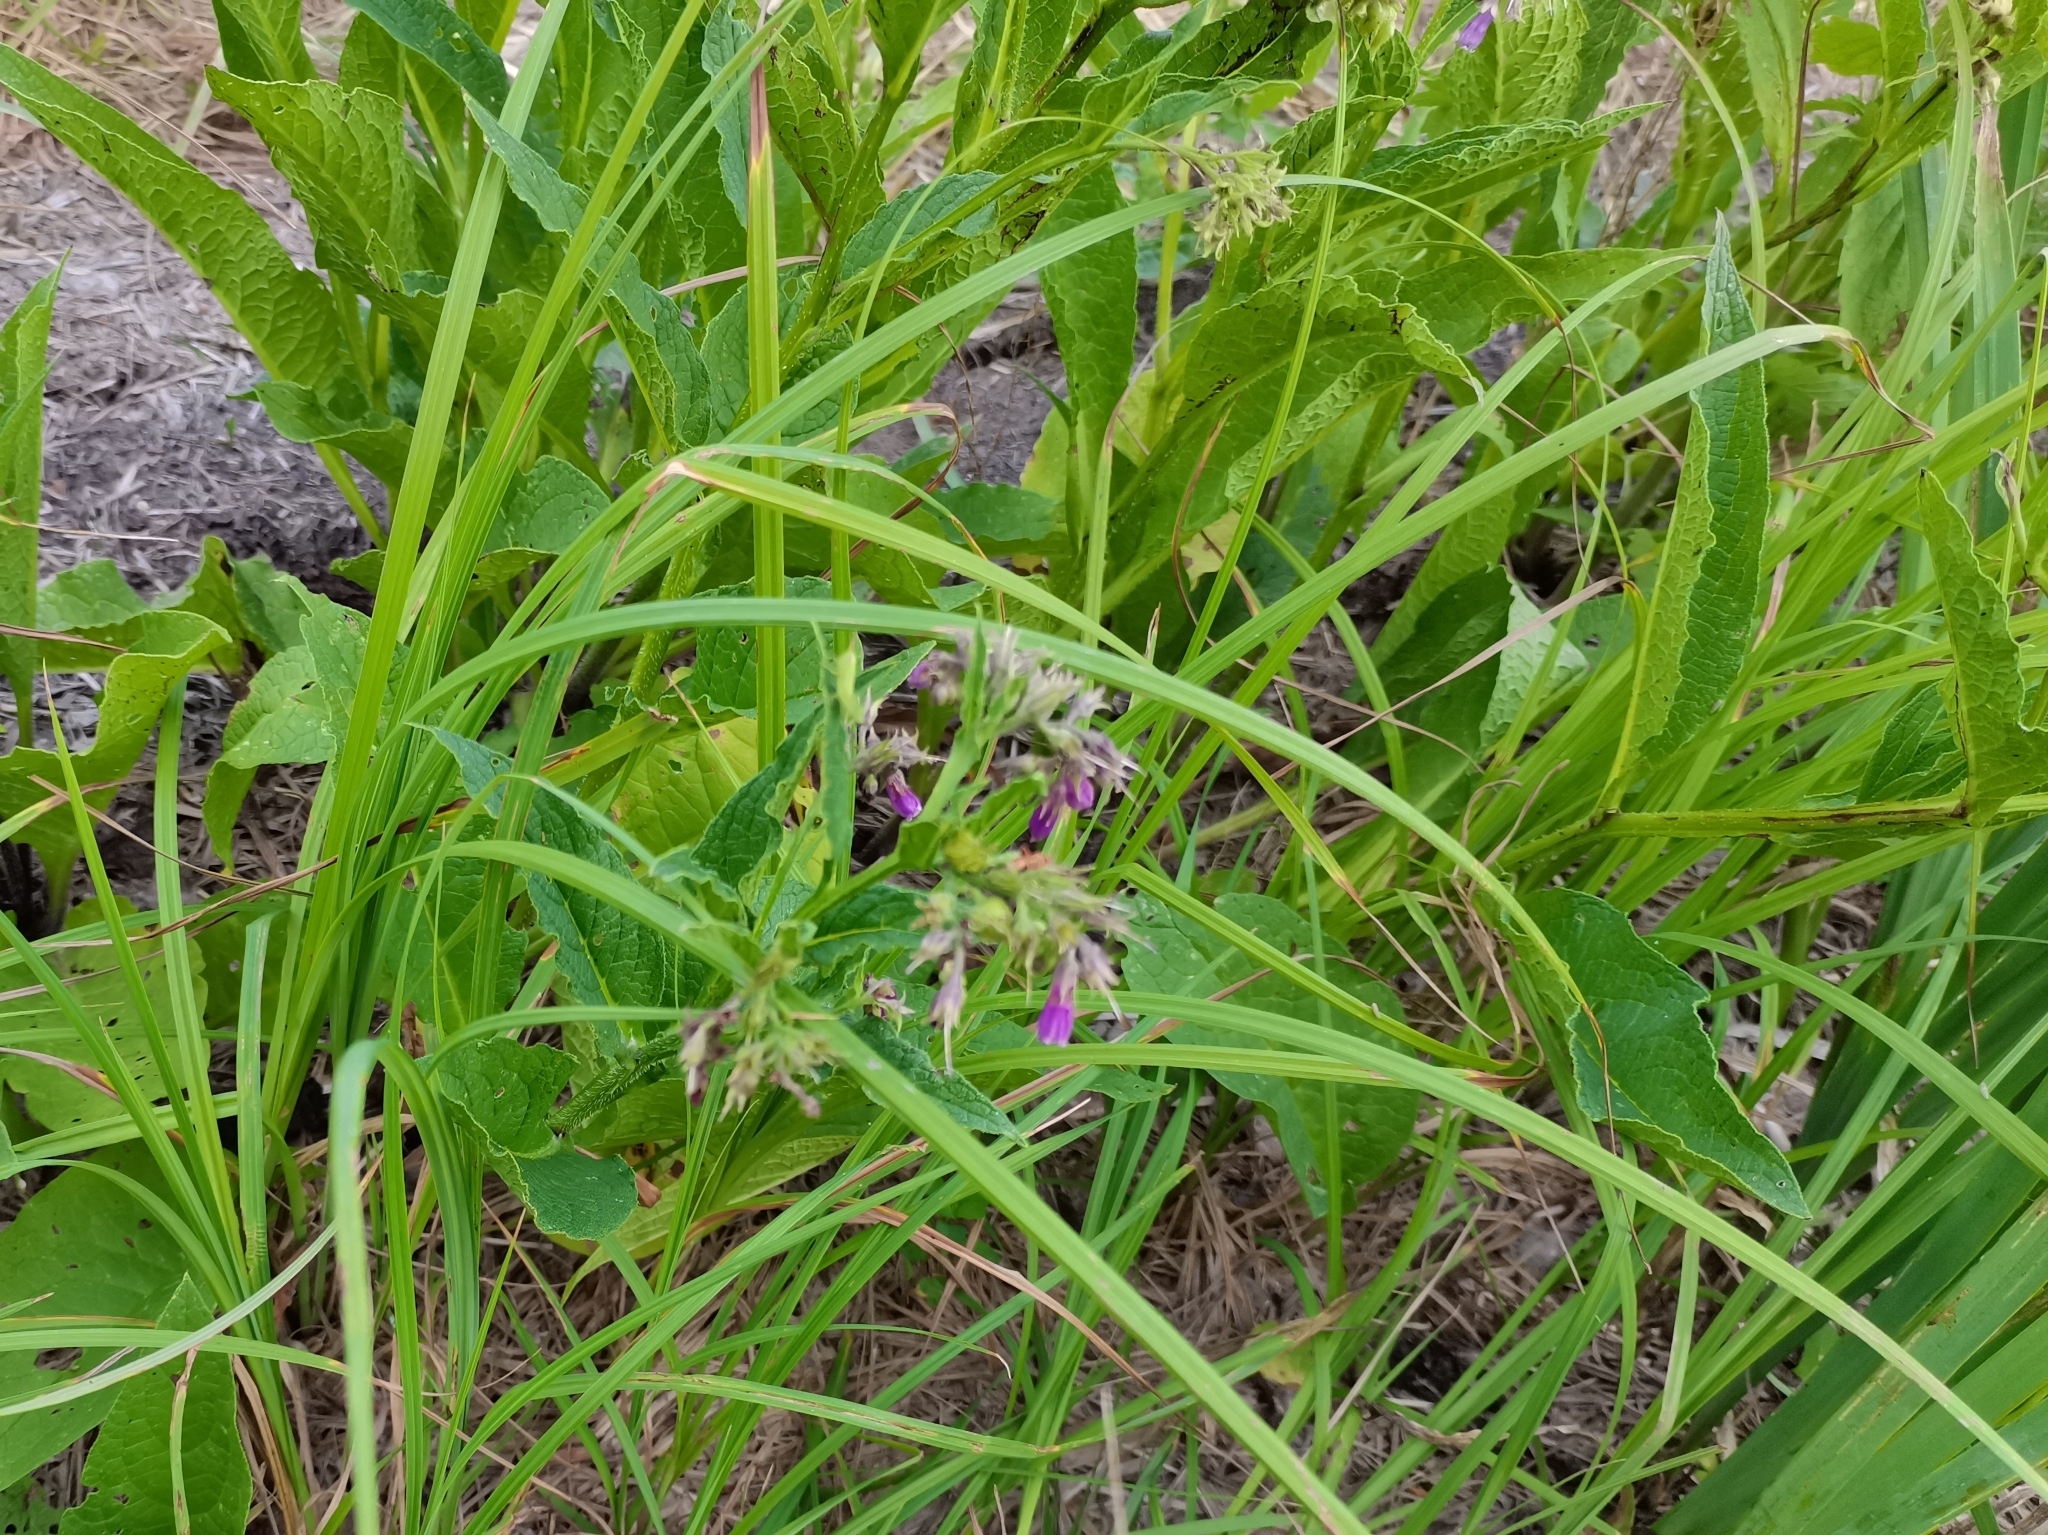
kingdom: Plantae
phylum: Tracheophyta
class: Magnoliopsida
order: Boraginales
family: Boraginaceae
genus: Symphytum
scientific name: Symphytum officinale
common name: Common comfrey
